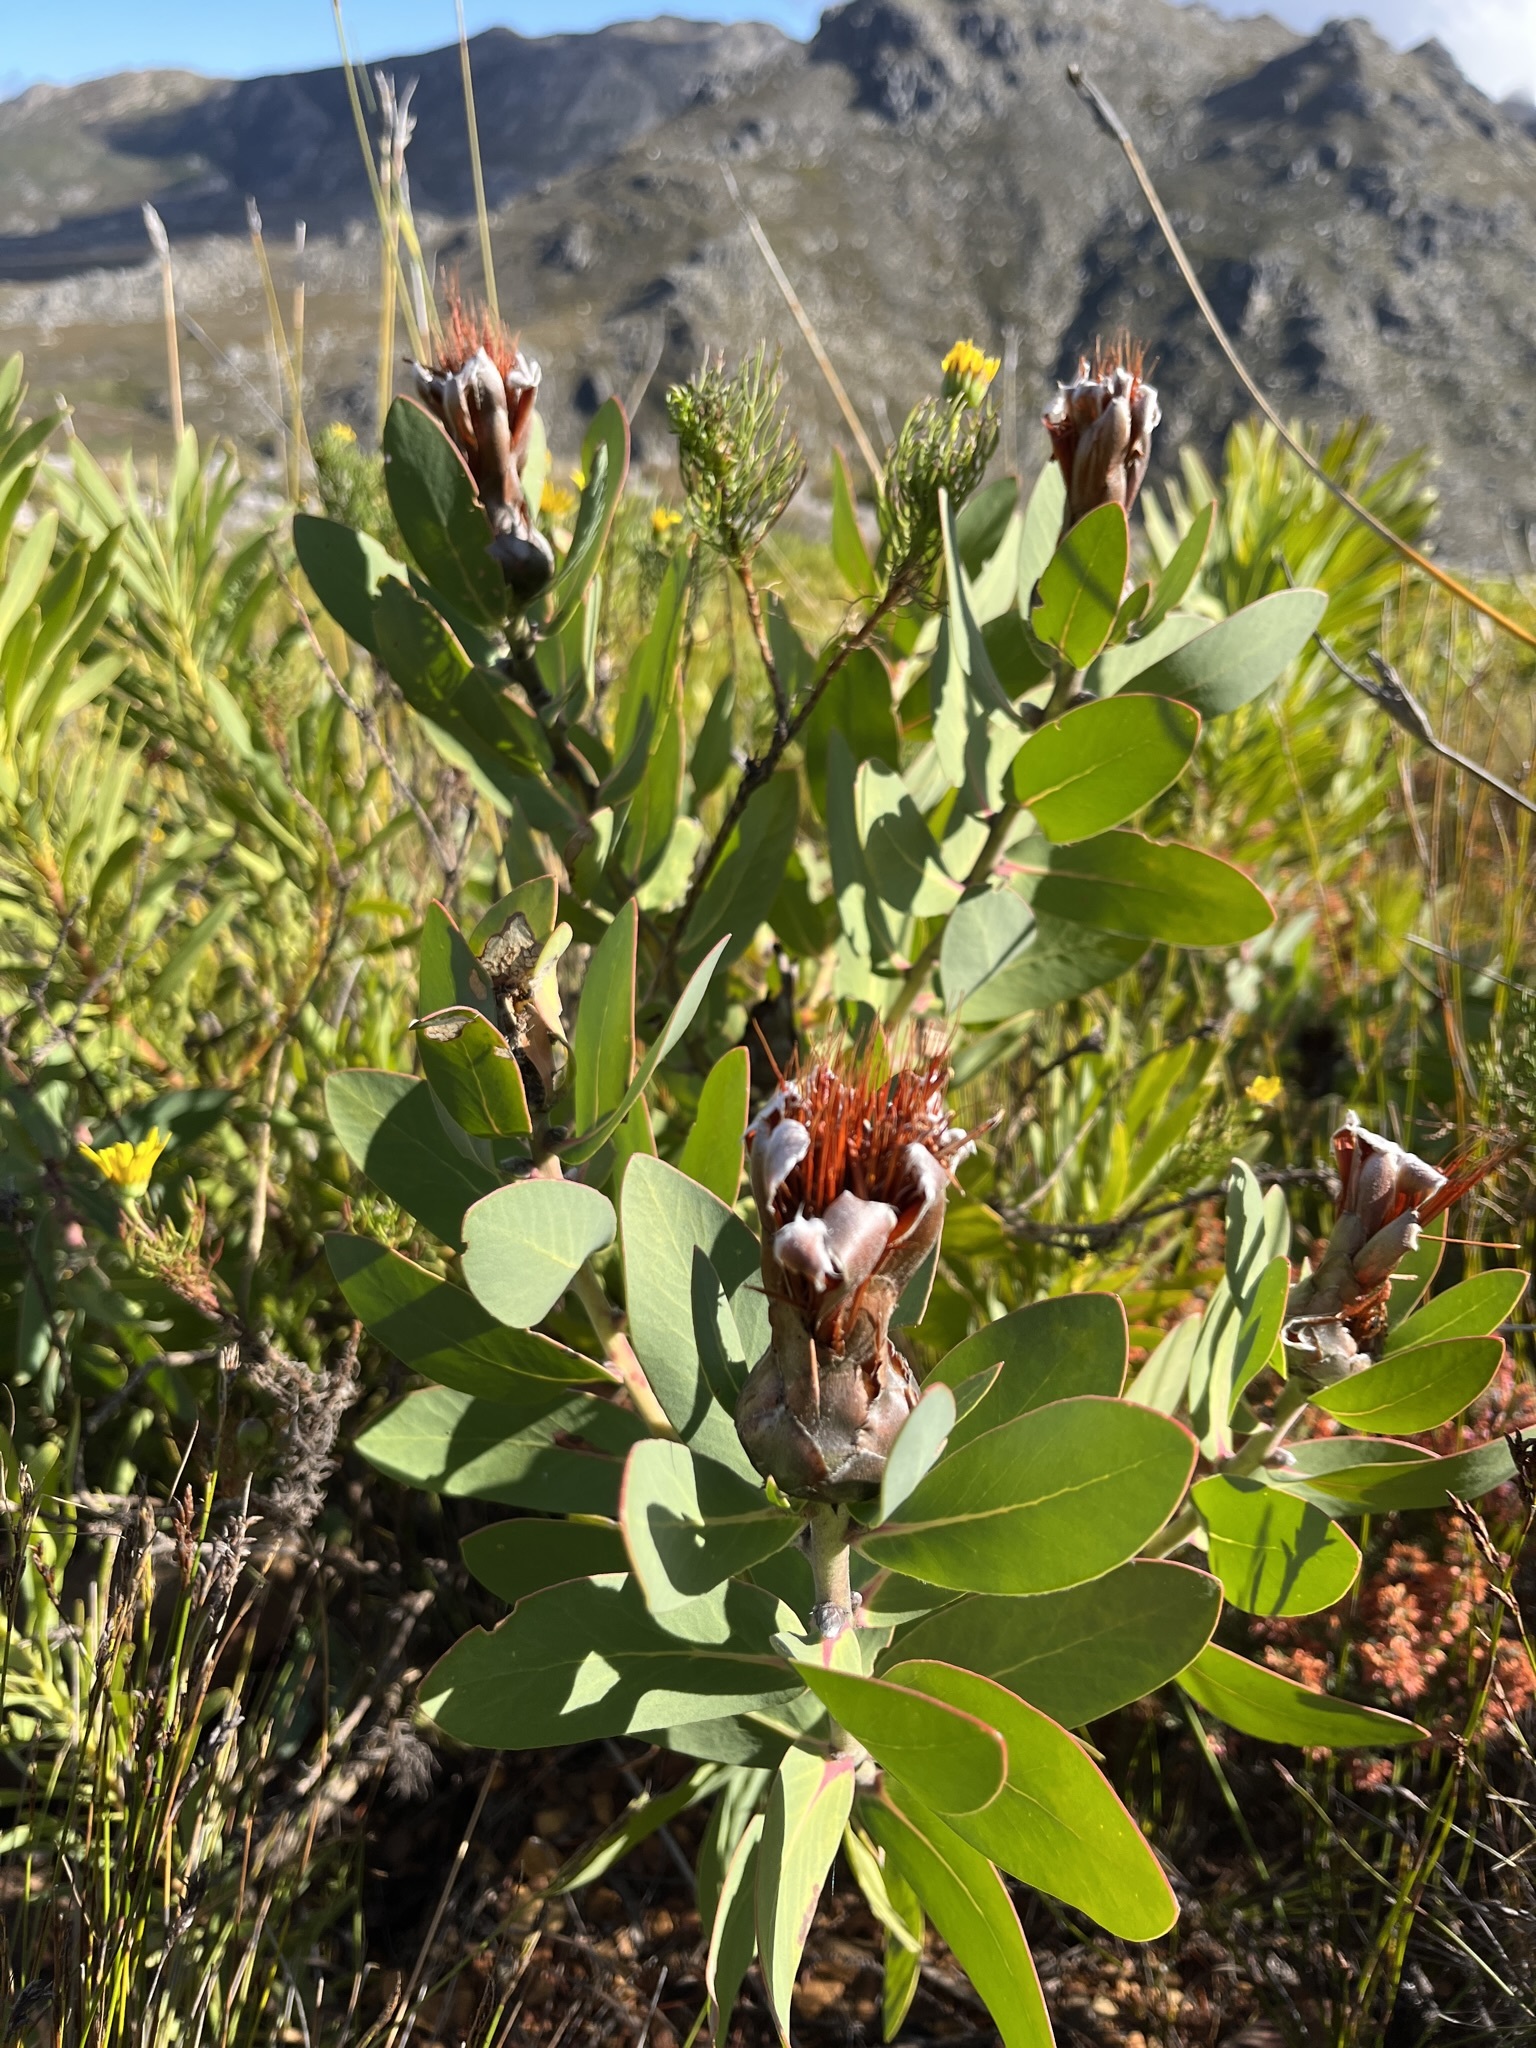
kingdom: Plantae
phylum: Tracheophyta
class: Magnoliopsida
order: Proteales
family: Proteaceae
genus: Protea
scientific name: Protea lacticolor
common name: Hottentot sugarbush
